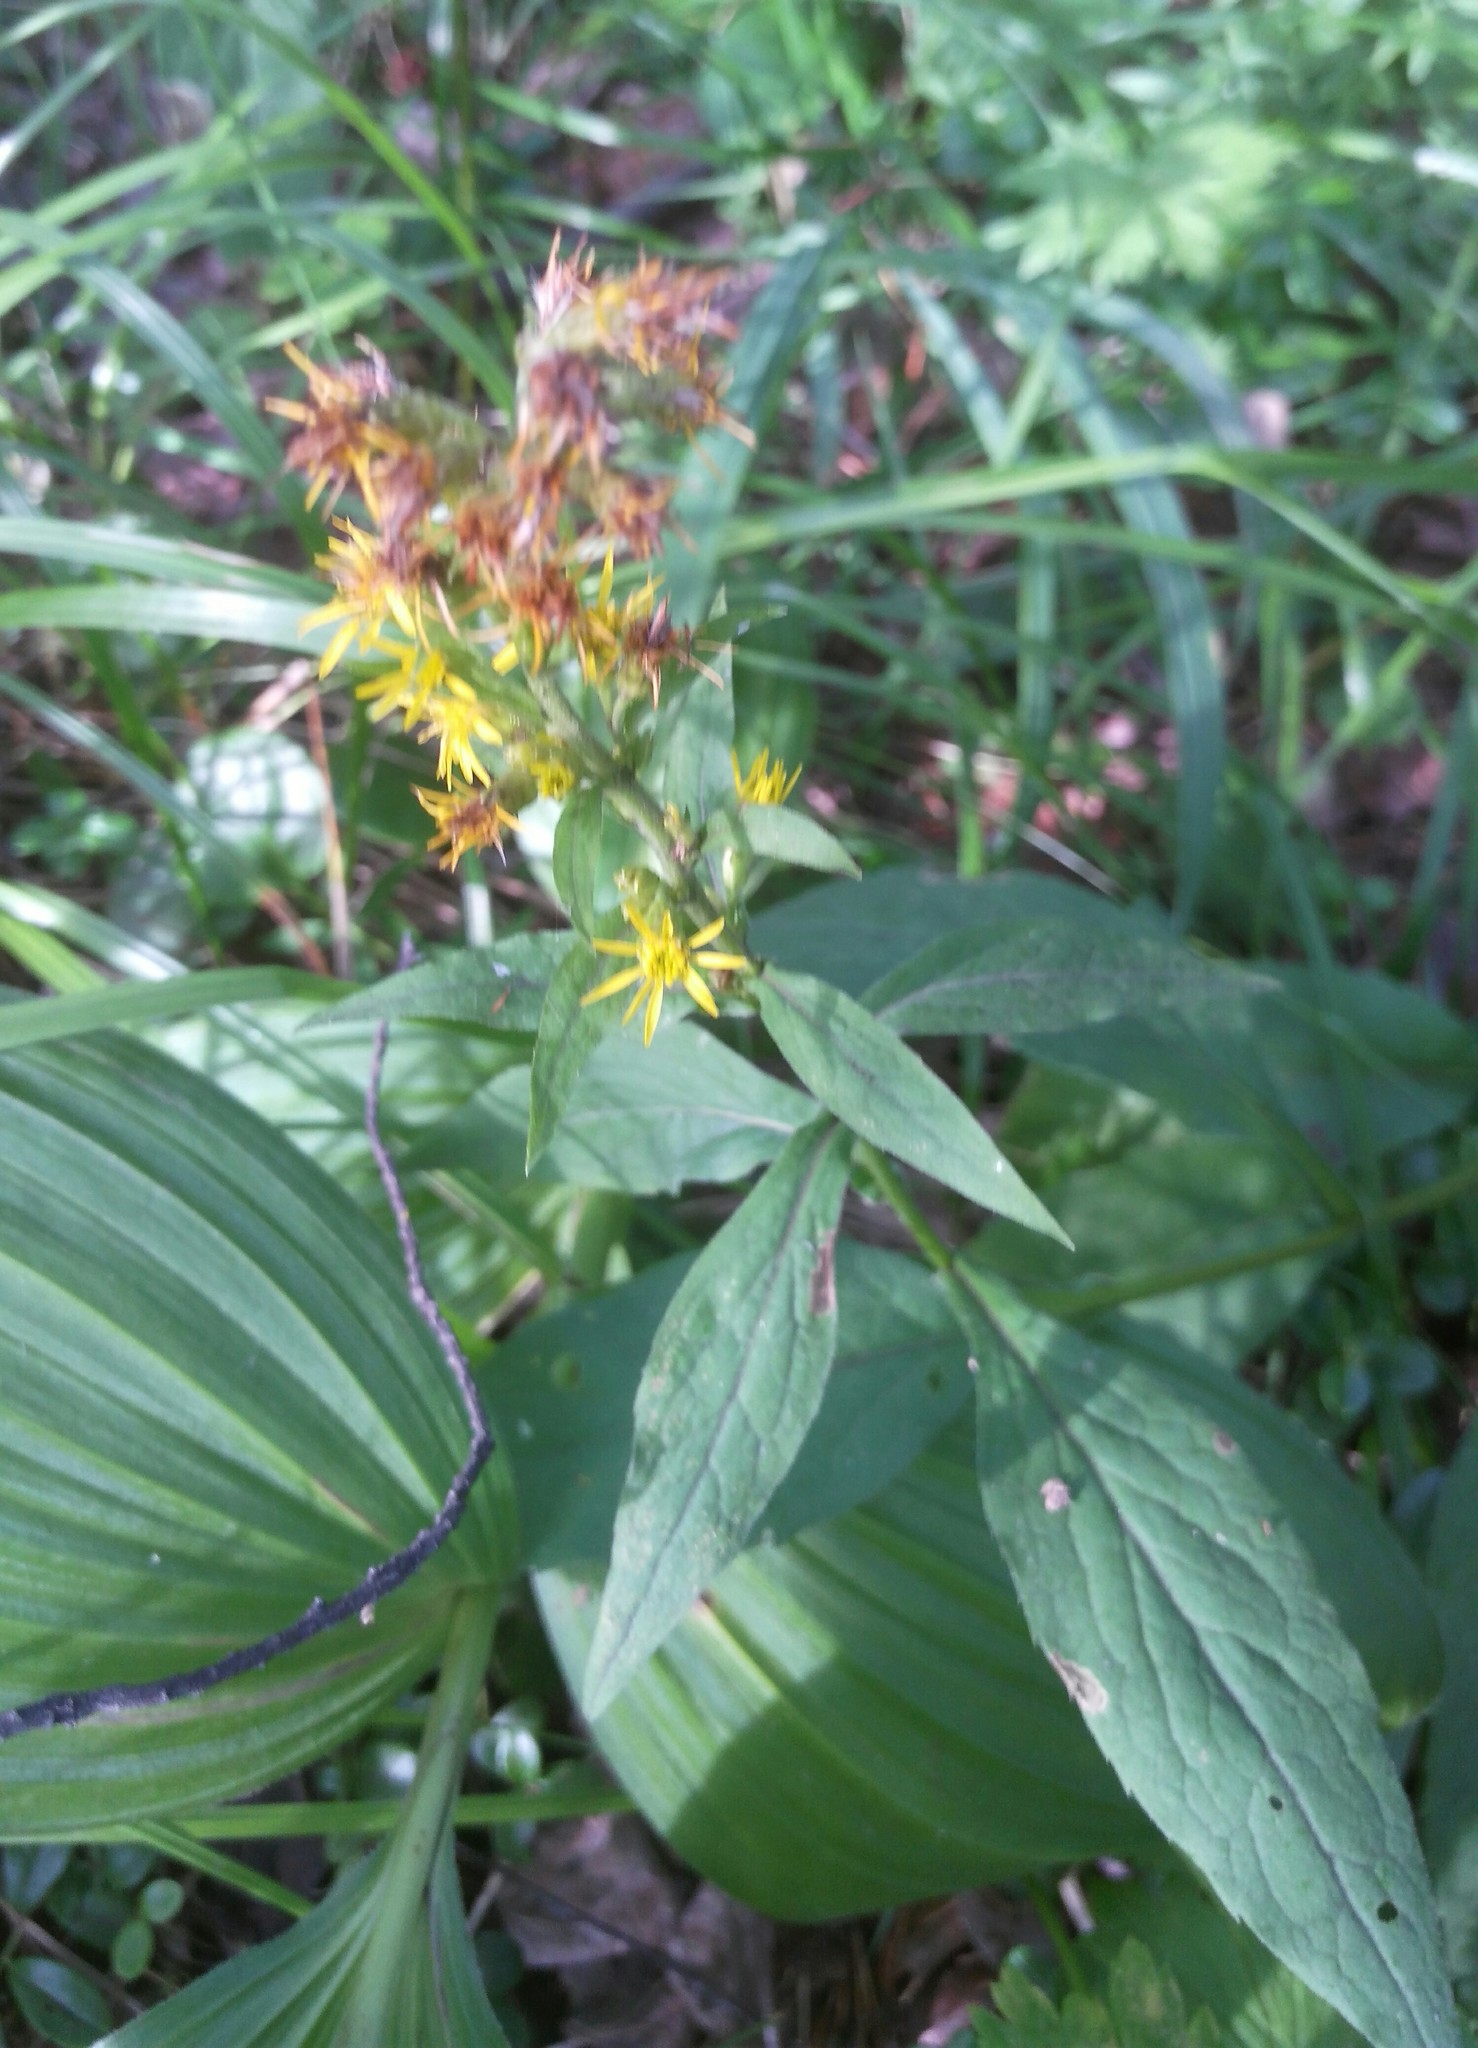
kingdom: Plantae
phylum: Tracheophyta
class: Magnoliopsida
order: Asterales
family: Asteraceae
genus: Solidago
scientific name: Solidago dahurica
